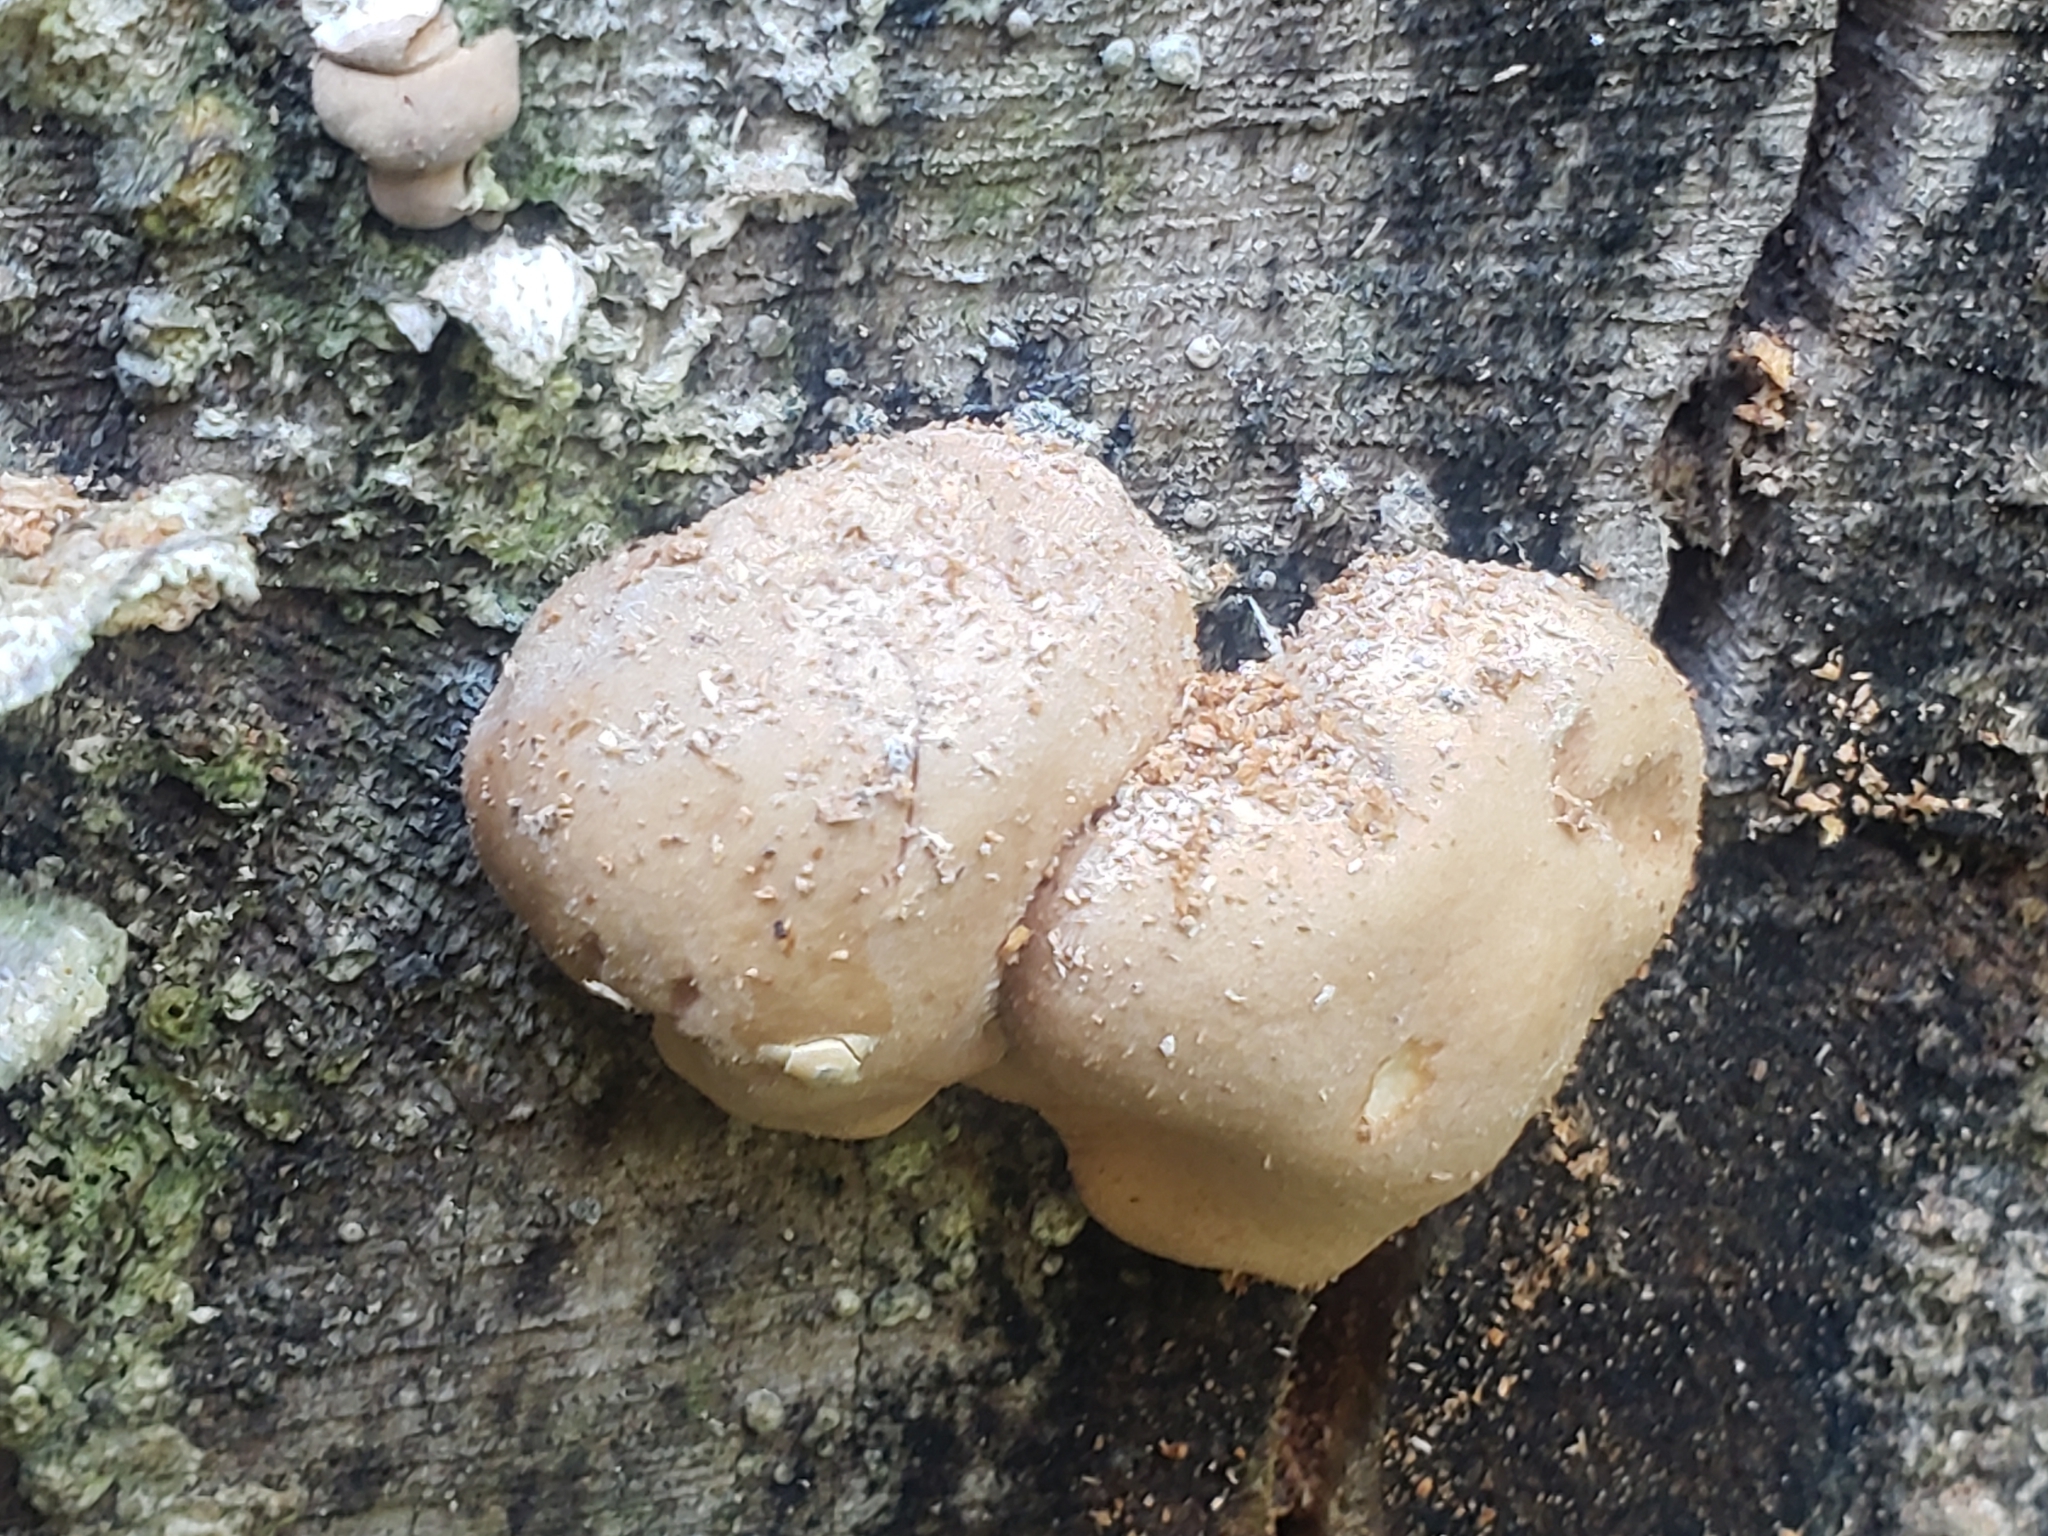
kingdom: Fungi
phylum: Ascomycota
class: Sordariomycetes
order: Hypocreales
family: Hypocreaceae
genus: Trichoderma
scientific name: Trichoderma peltatum
